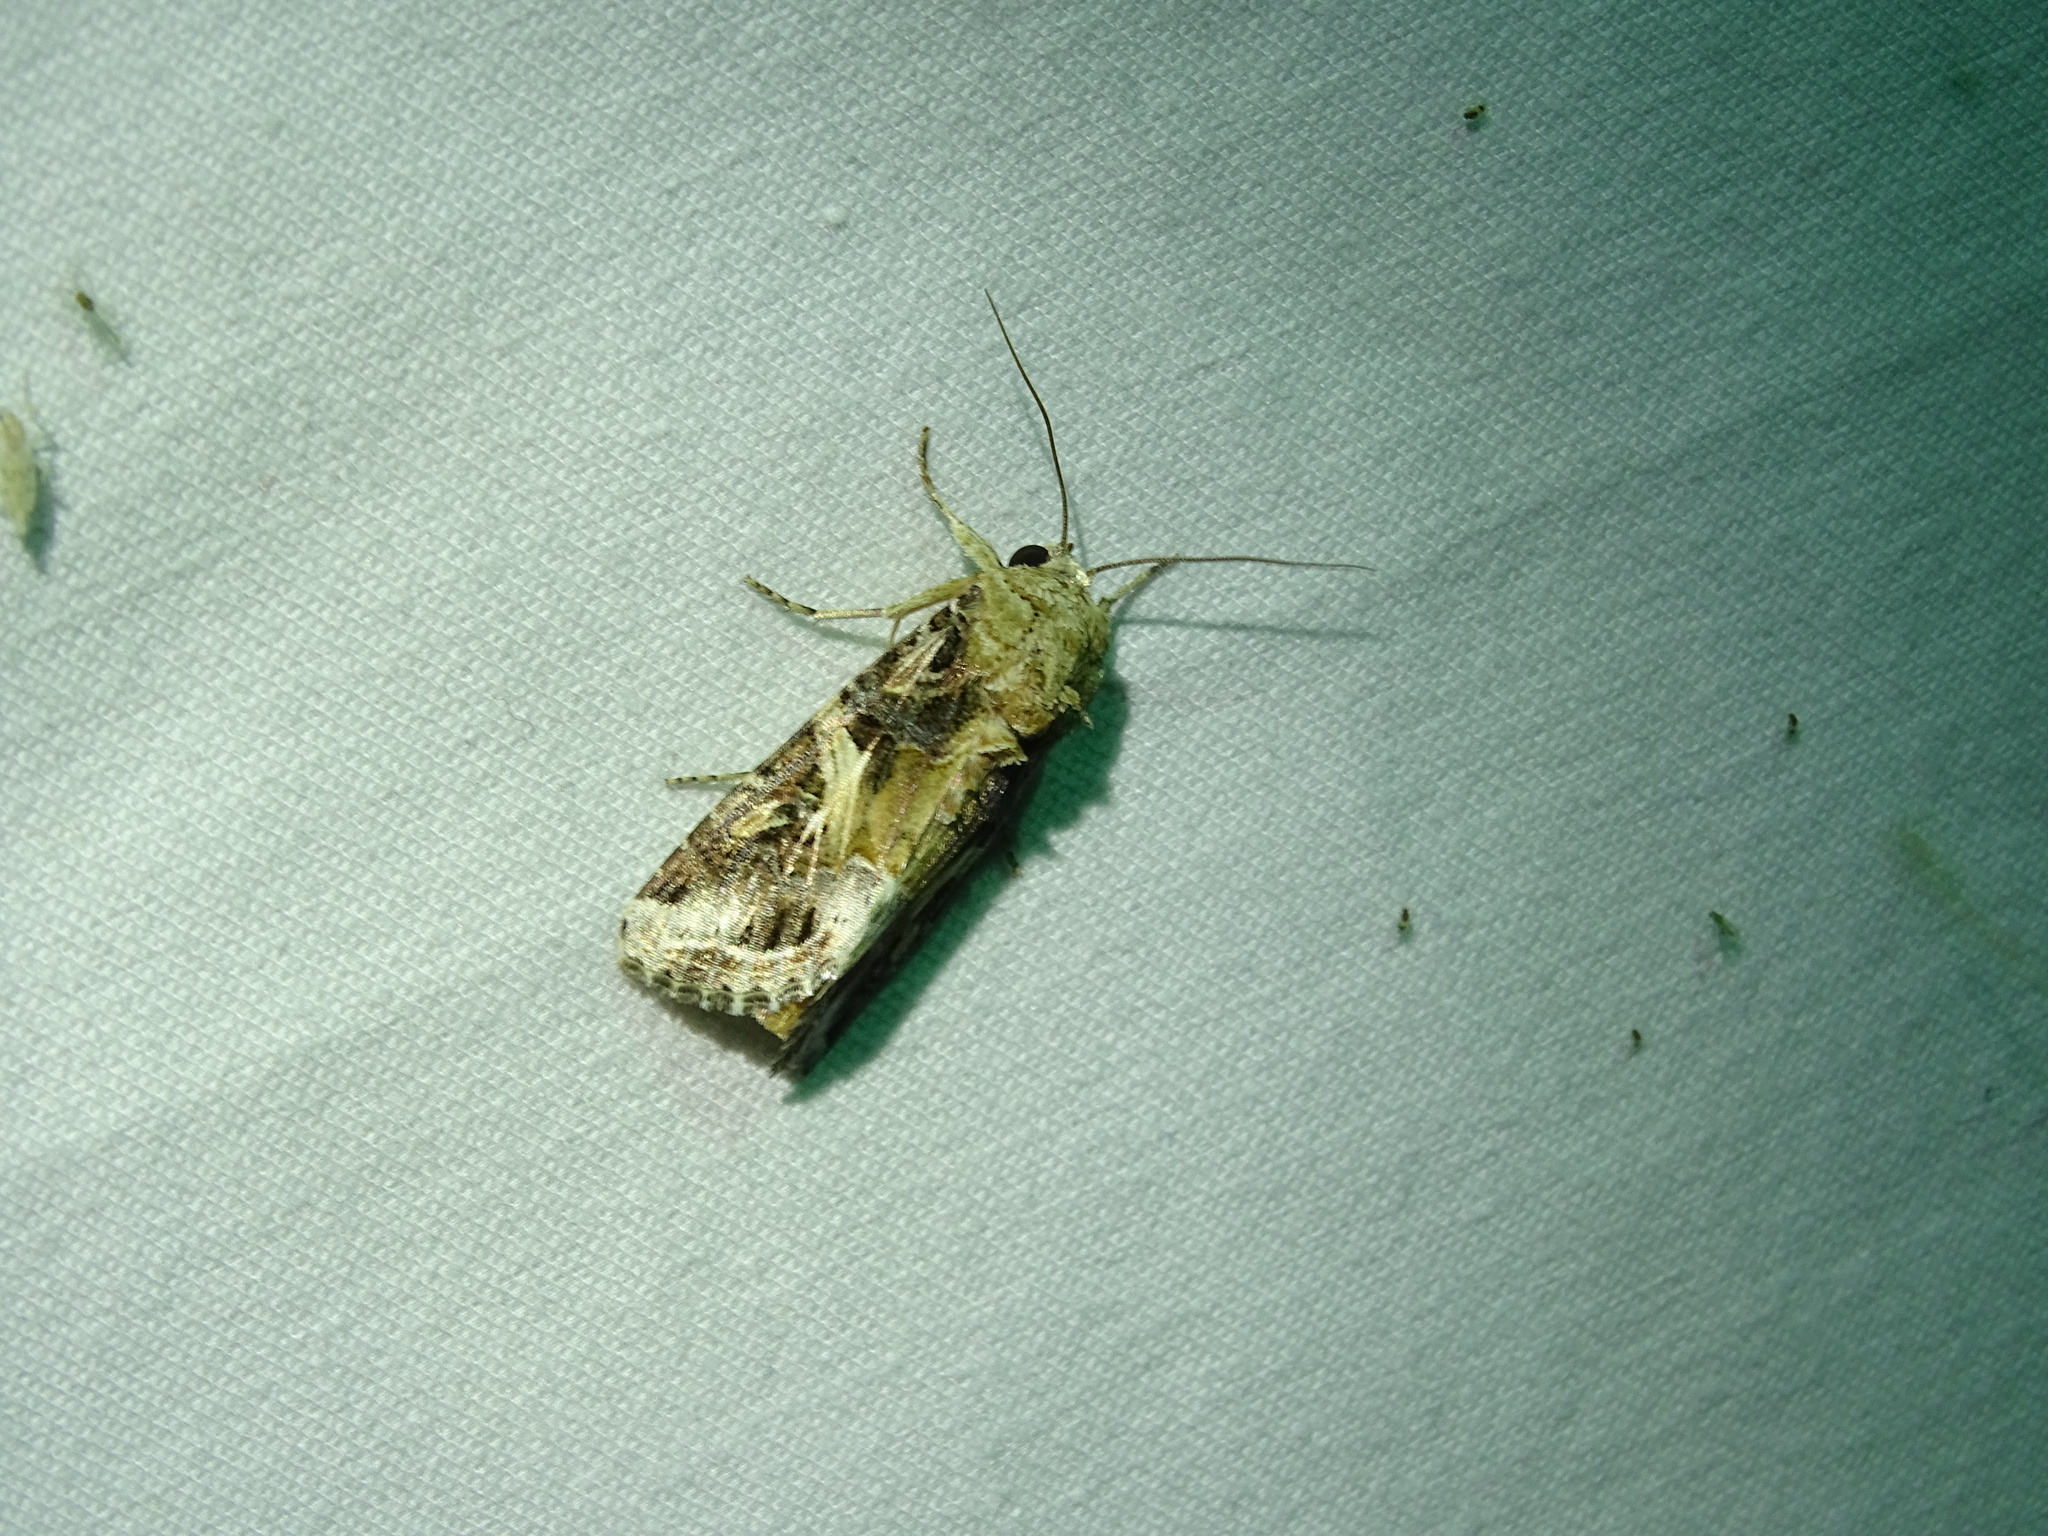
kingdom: Animalia
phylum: Arthropoda
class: Insecta
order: Lepidoptera
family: Noctuidae
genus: Spodoptera
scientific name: Spodoptera ornithogalli
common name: Yellow-striped armyworm
